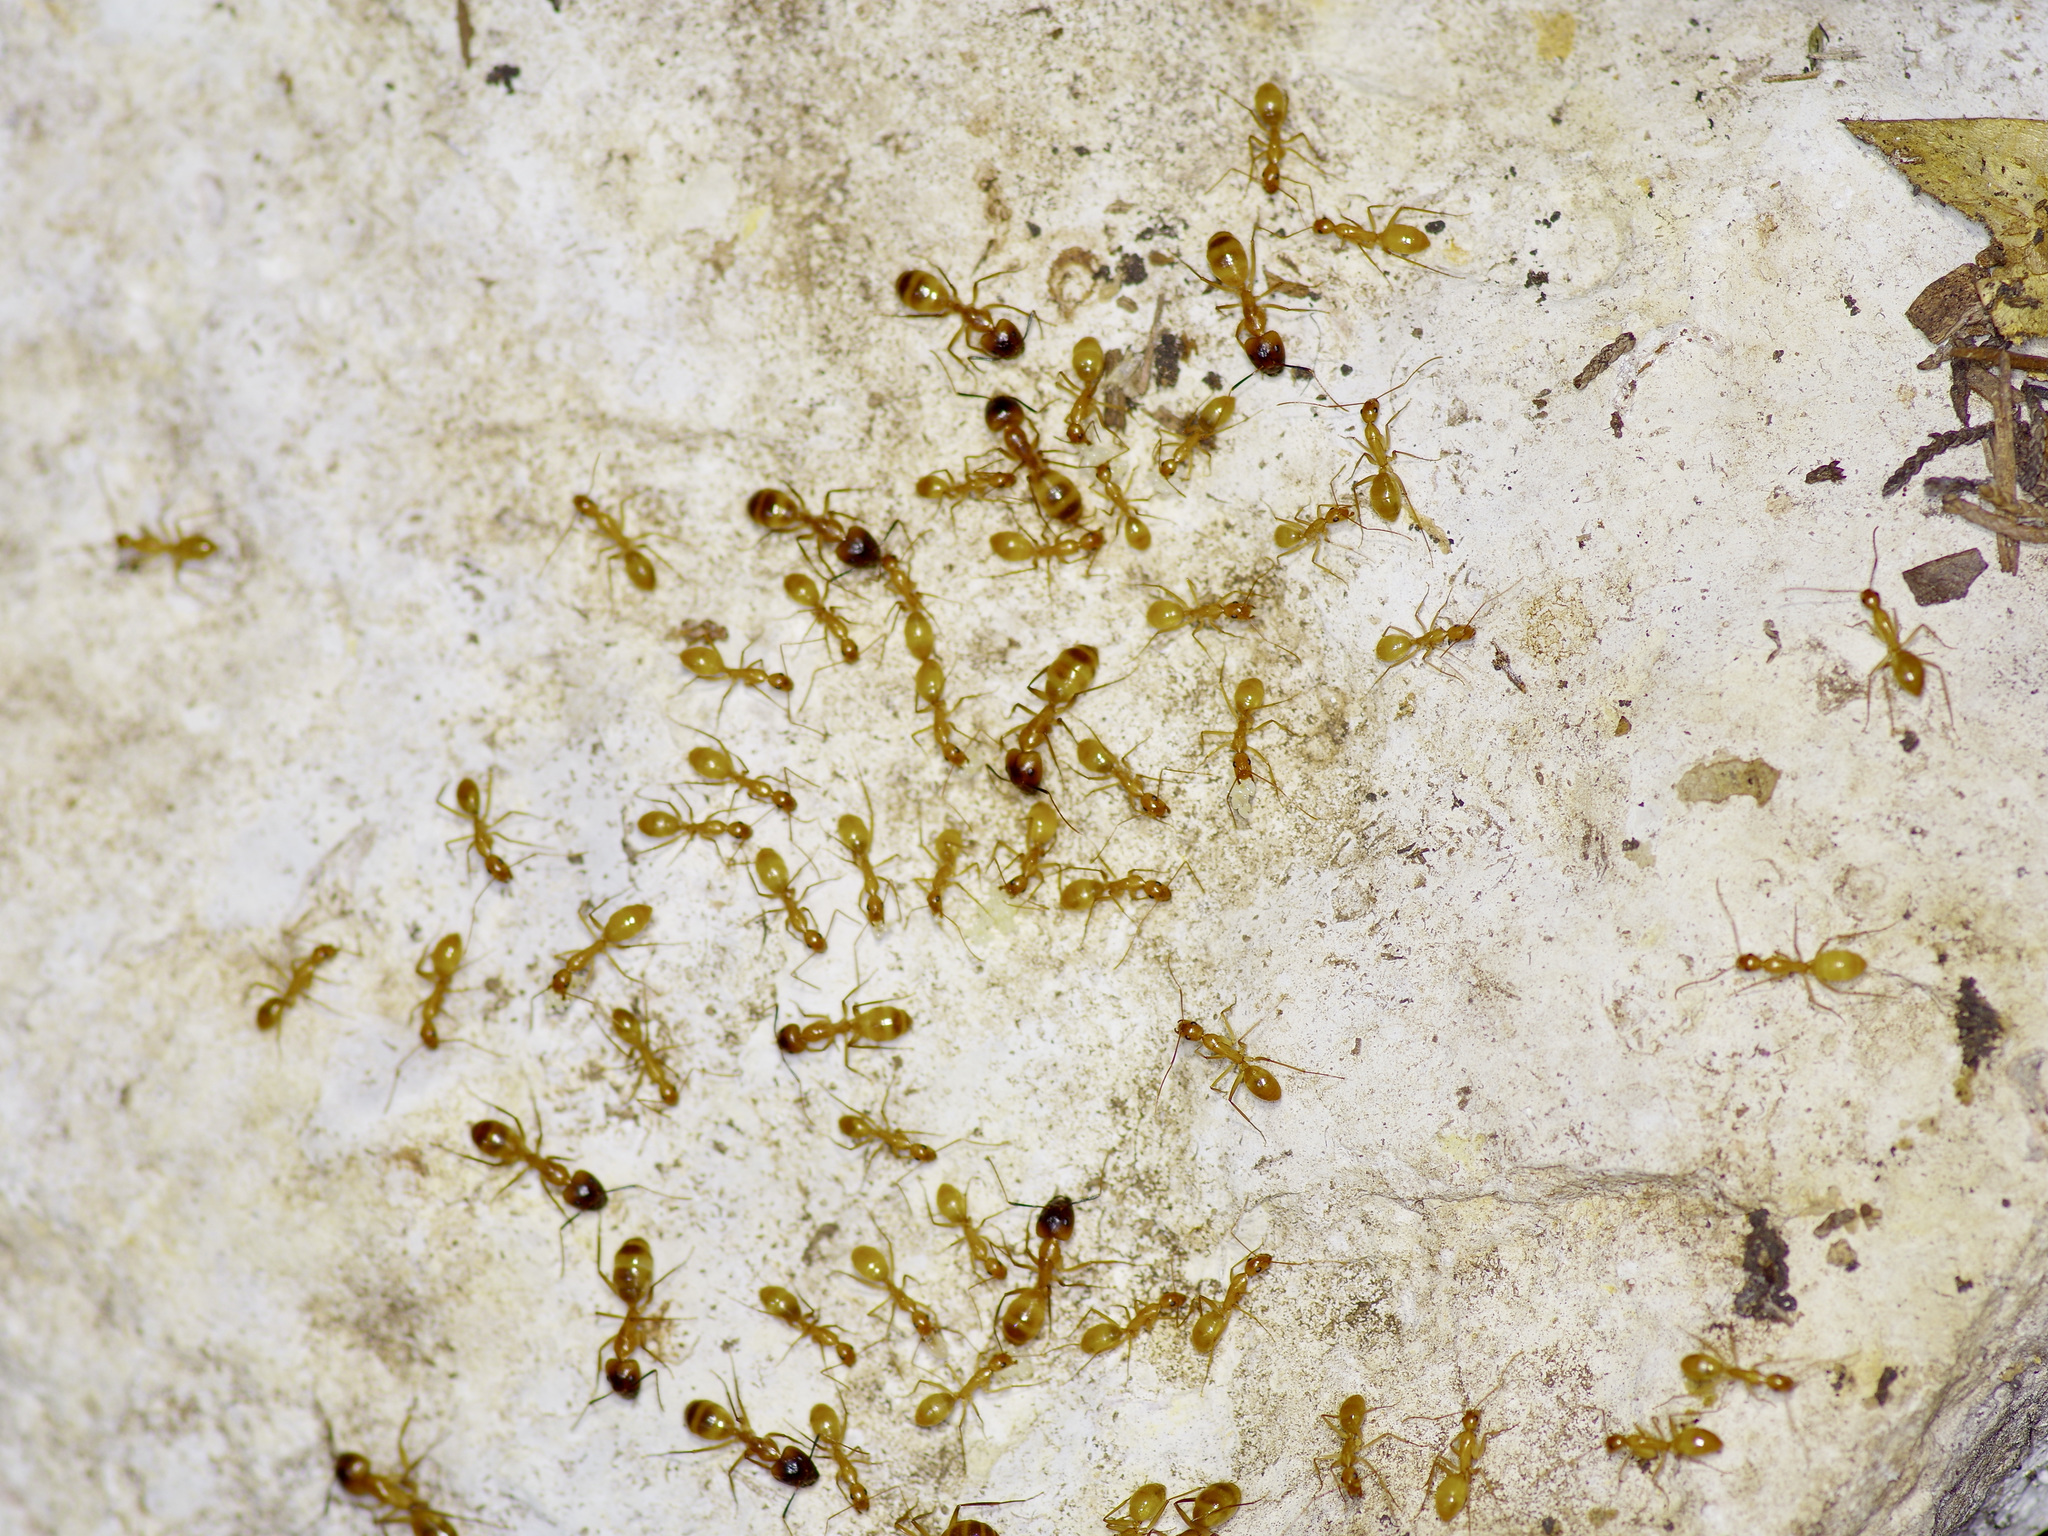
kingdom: Animalia
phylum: Arthropoda
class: Insecta
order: Hymenoptera
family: Formicidae
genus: Camponotus
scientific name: Camponotus festinatus
